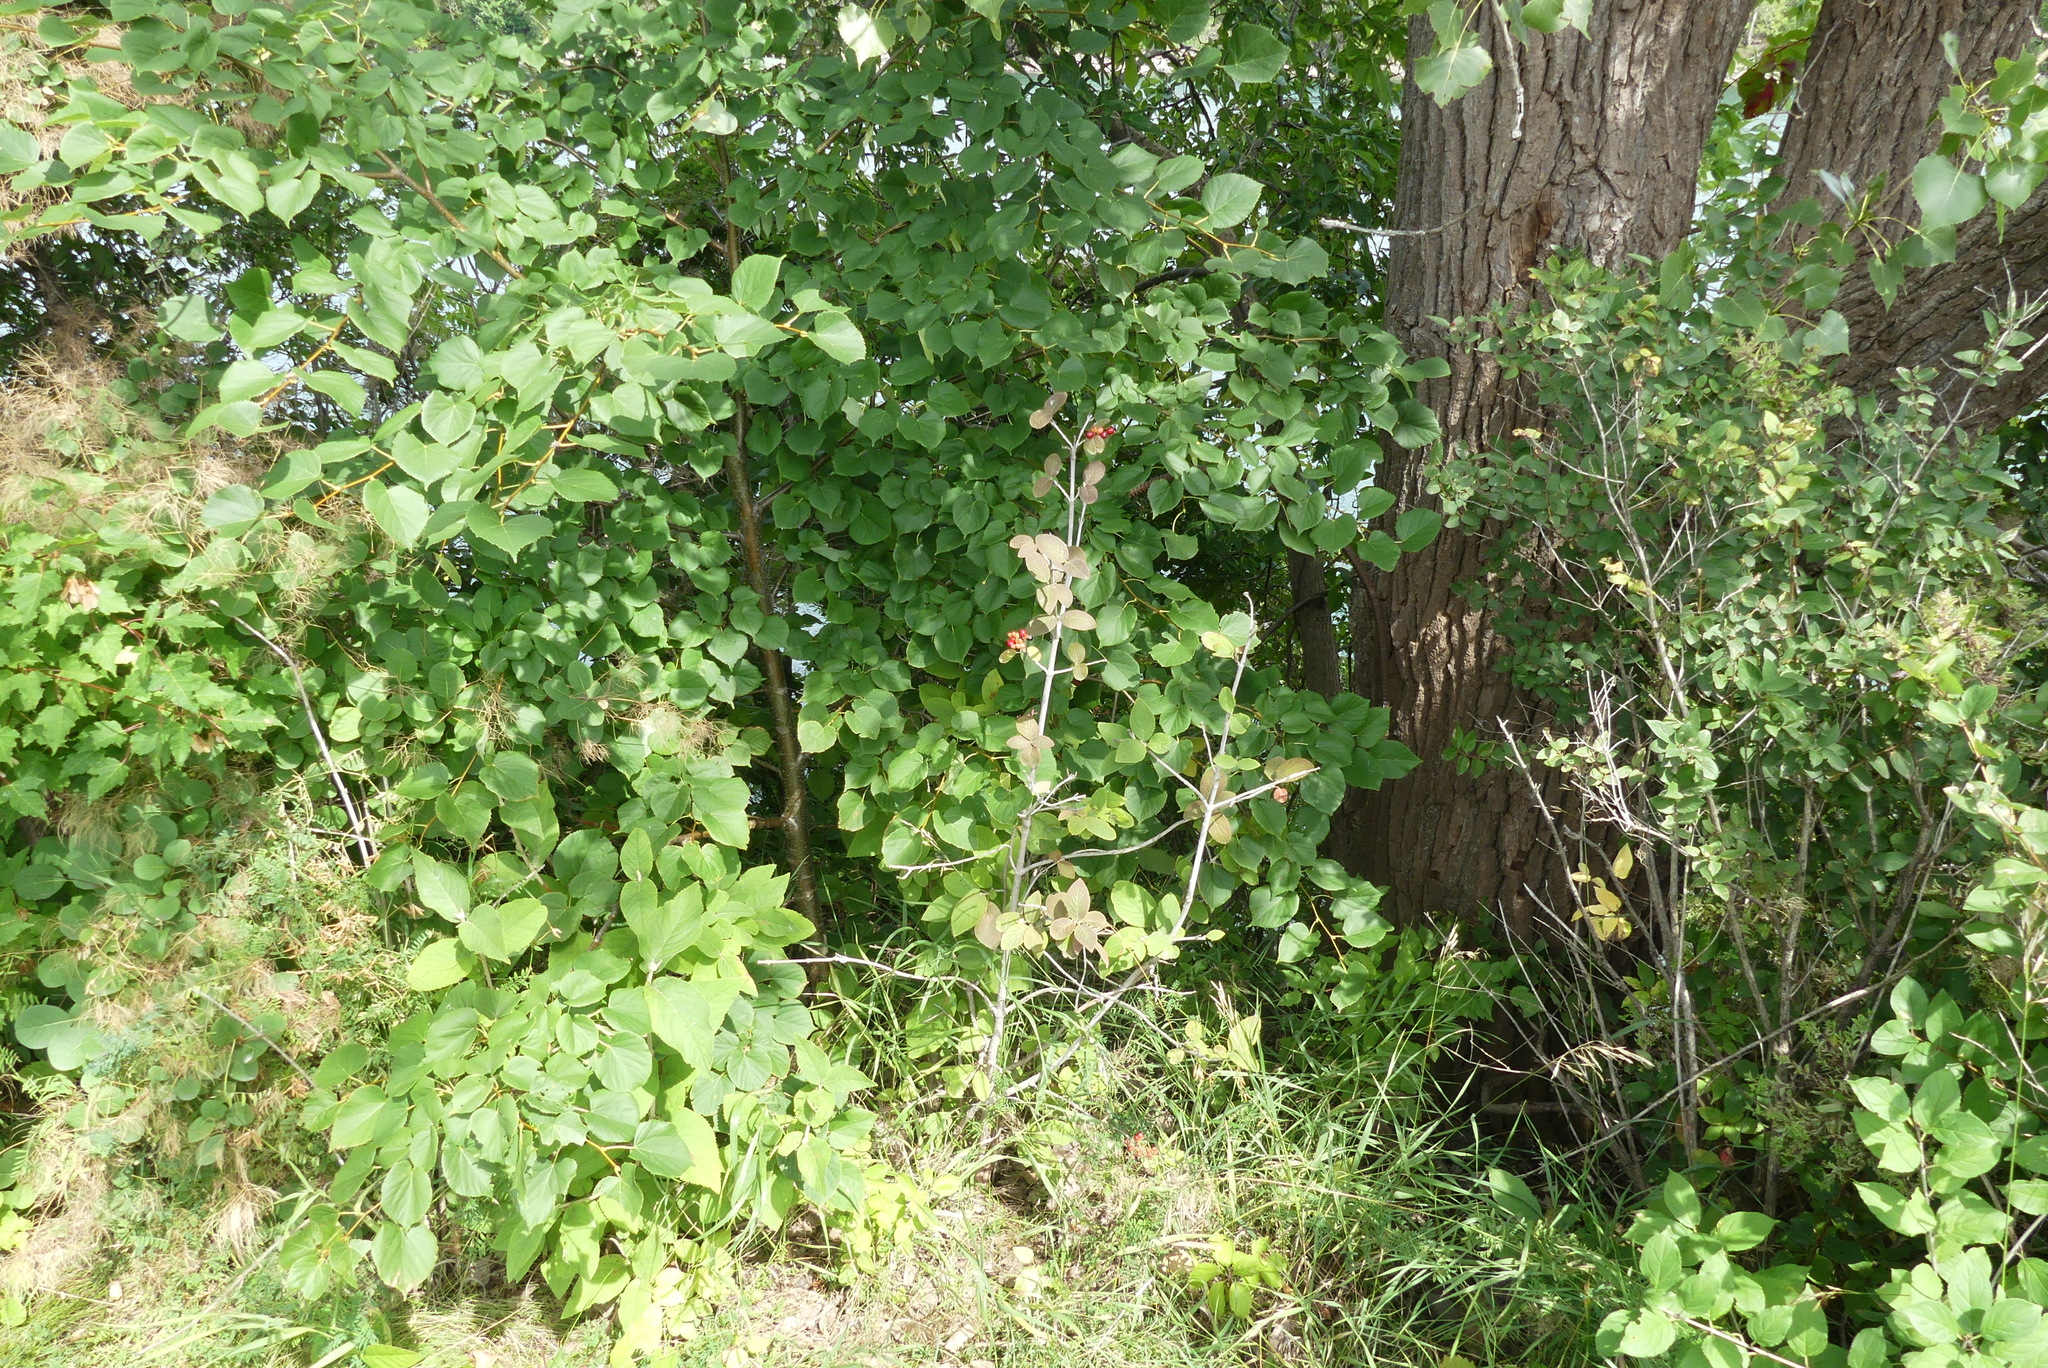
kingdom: Plantae
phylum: Tracheophyta
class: Magnoliopsida
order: Dipsacales
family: Viburnaceae
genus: Viburnum
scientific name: Viburnum lantana
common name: Wayfaring tree
